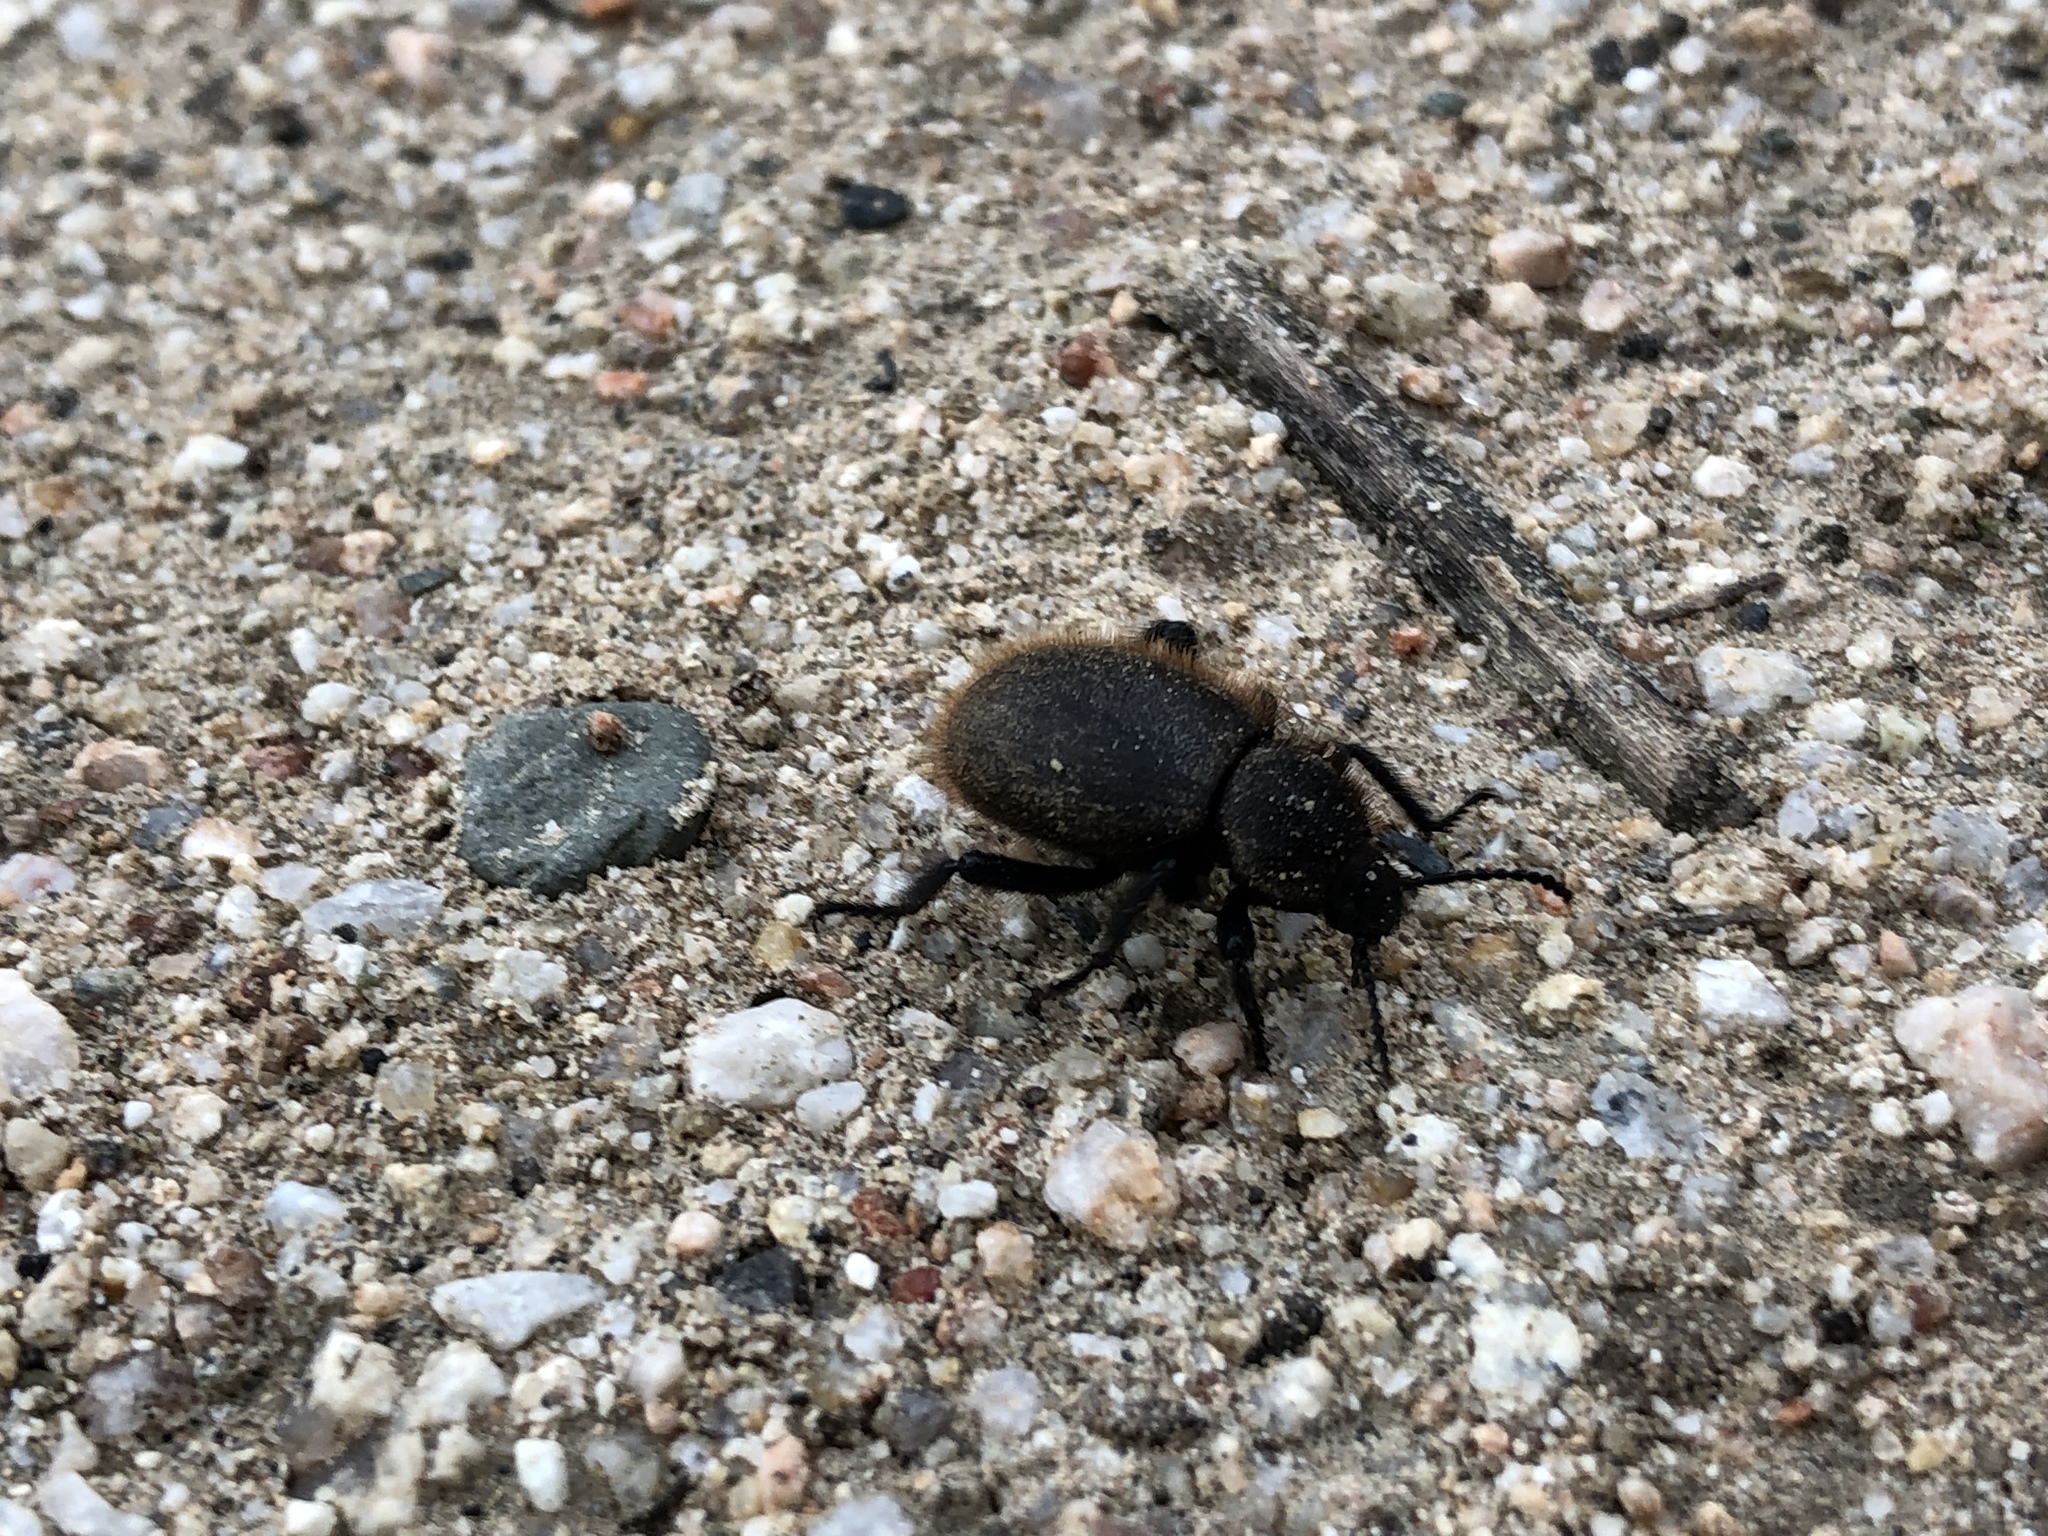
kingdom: Animalia
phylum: Arthropoda
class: Insecta
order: Coleoptera
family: Tenebrionidae
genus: Eleodes
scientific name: Eleodes osculans
